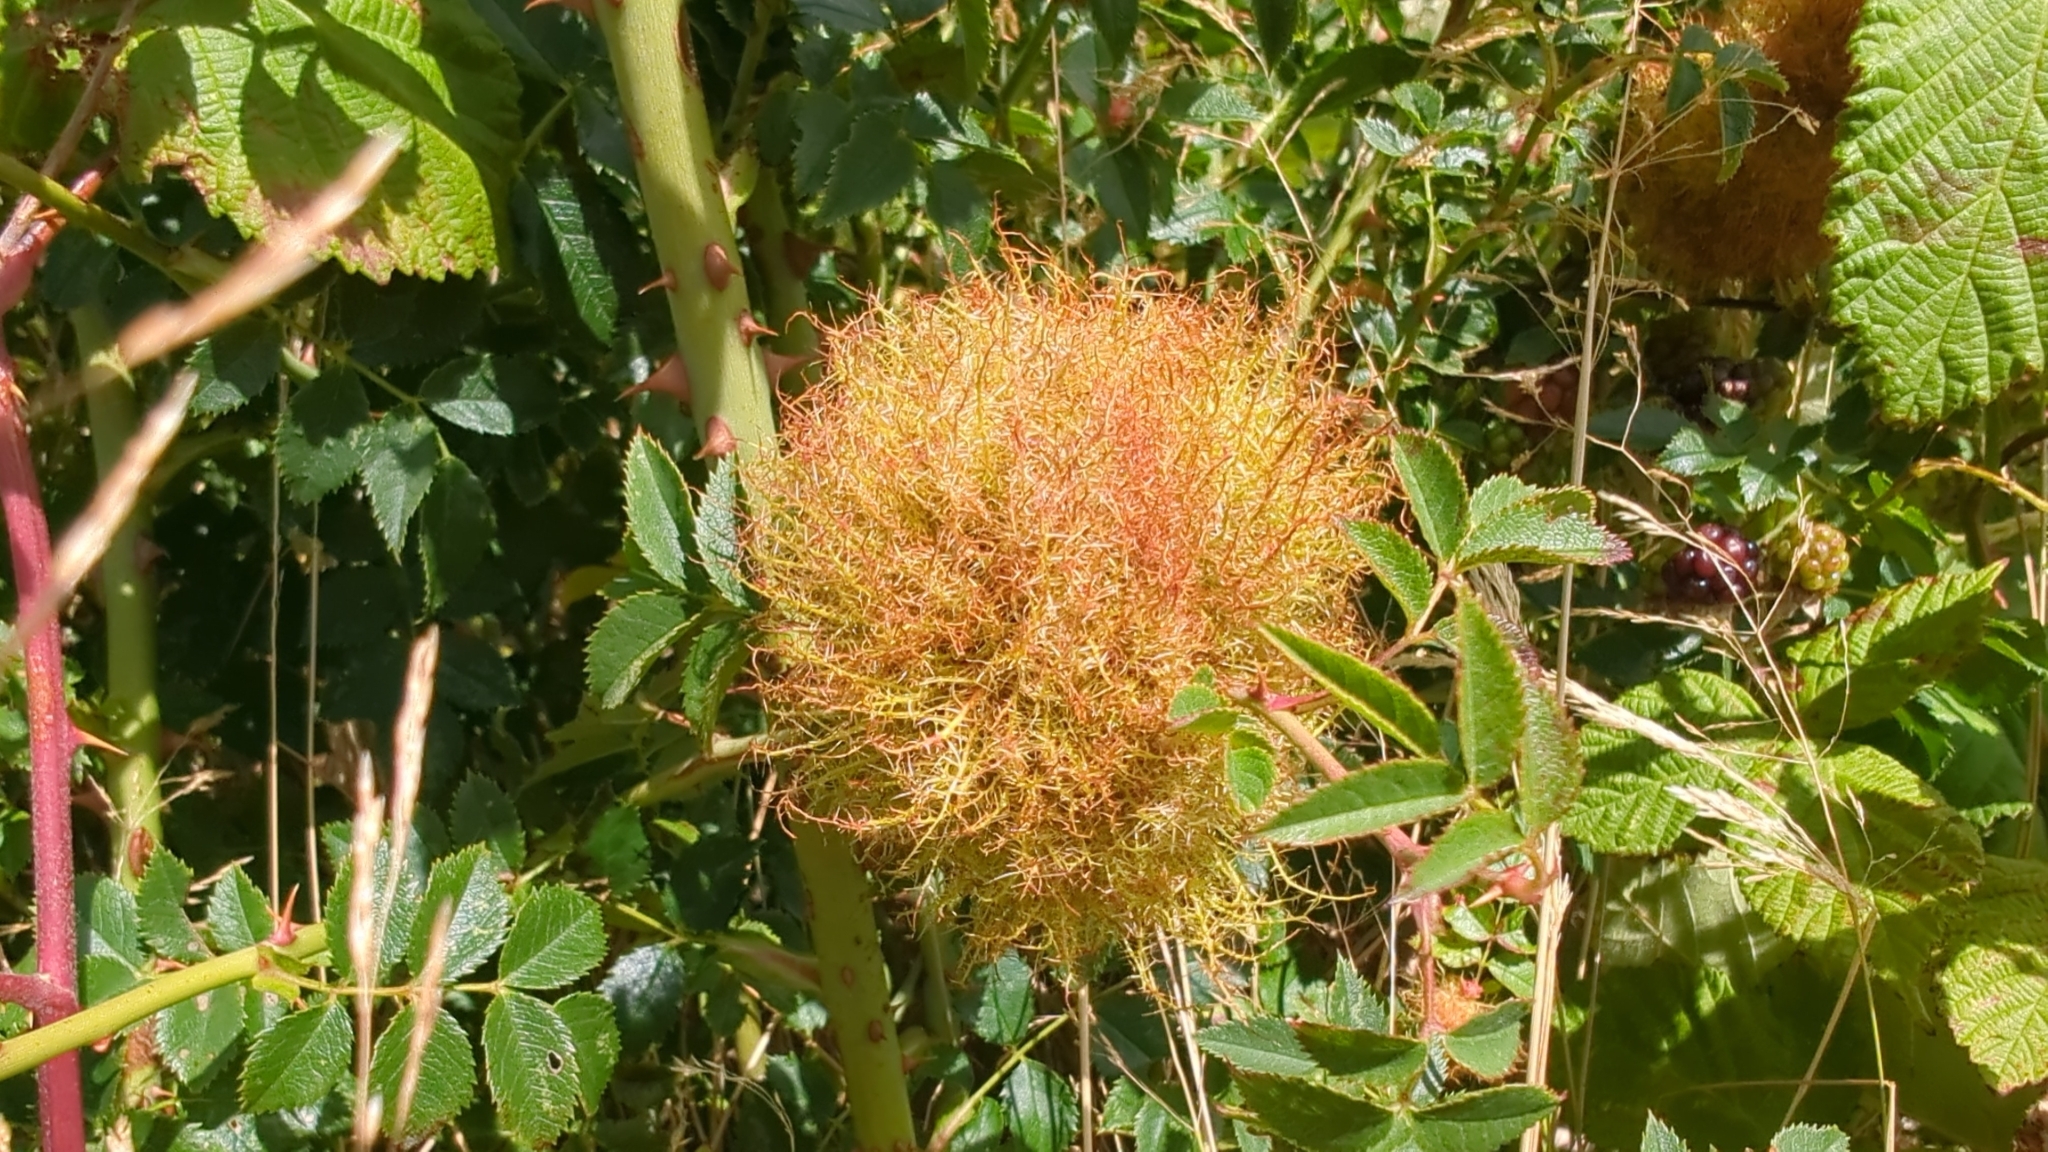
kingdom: Animalia
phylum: Arthropoda
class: Insecta
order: Hymenoptera
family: Cynipidae
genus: Diplolepis
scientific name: Diplolepis rosae
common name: Bedeguar gall
